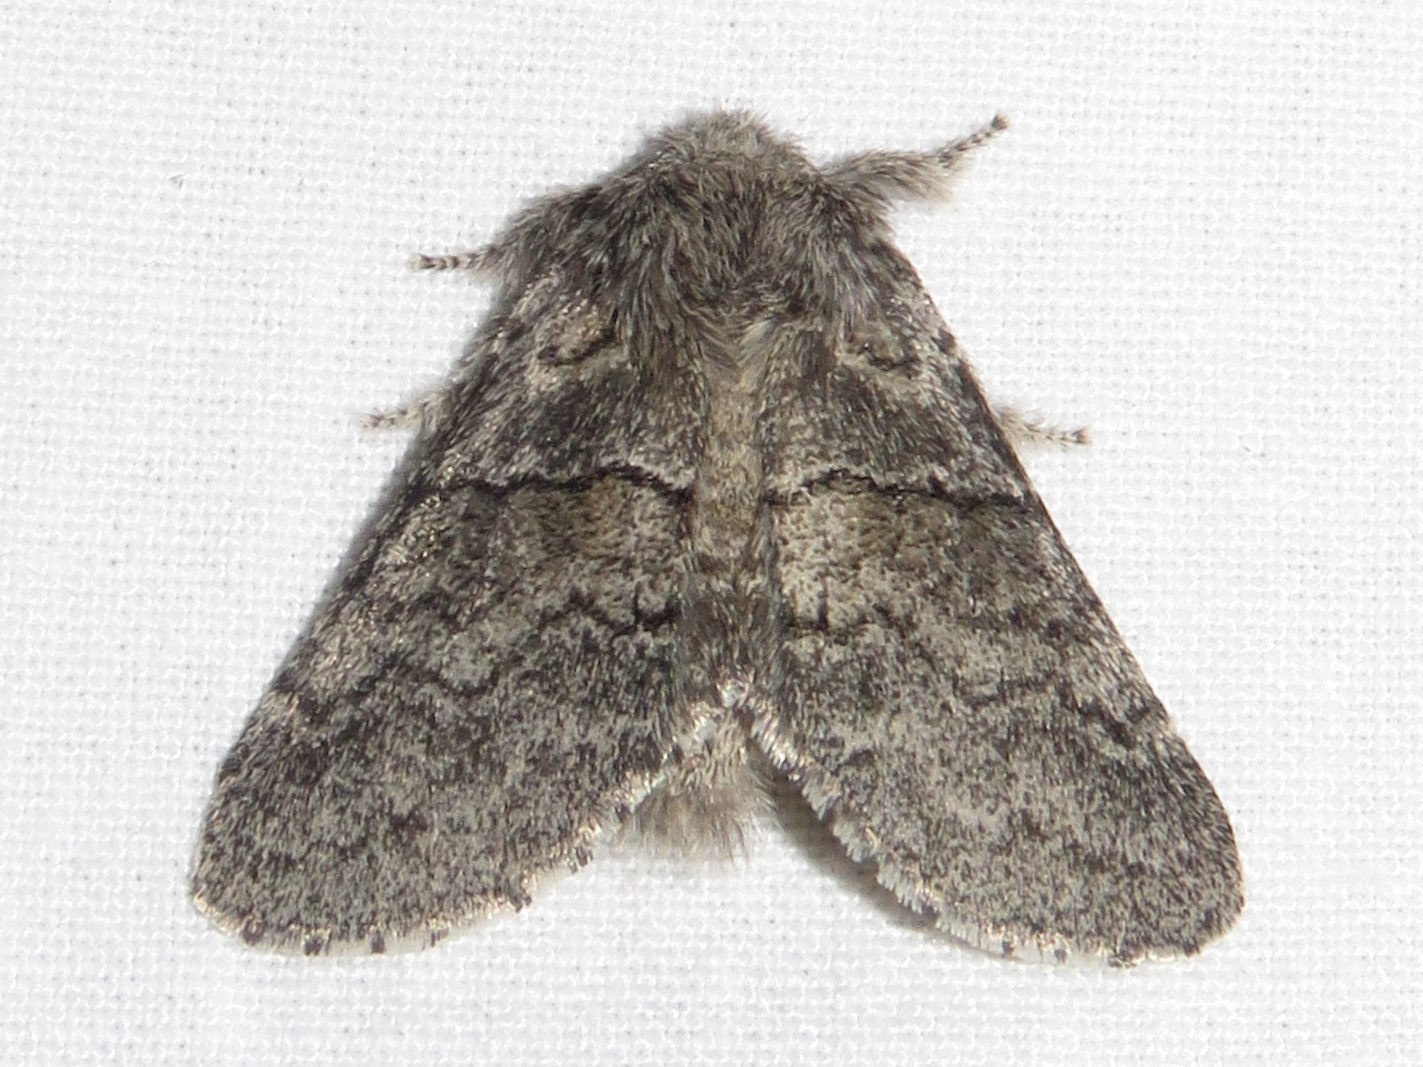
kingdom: Animalia
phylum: Arthropoda
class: Insecta
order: Lepidoptera
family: Notodontidae
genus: Gluphisia
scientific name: Gluphisia septentrionis
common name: Common gluphisia
